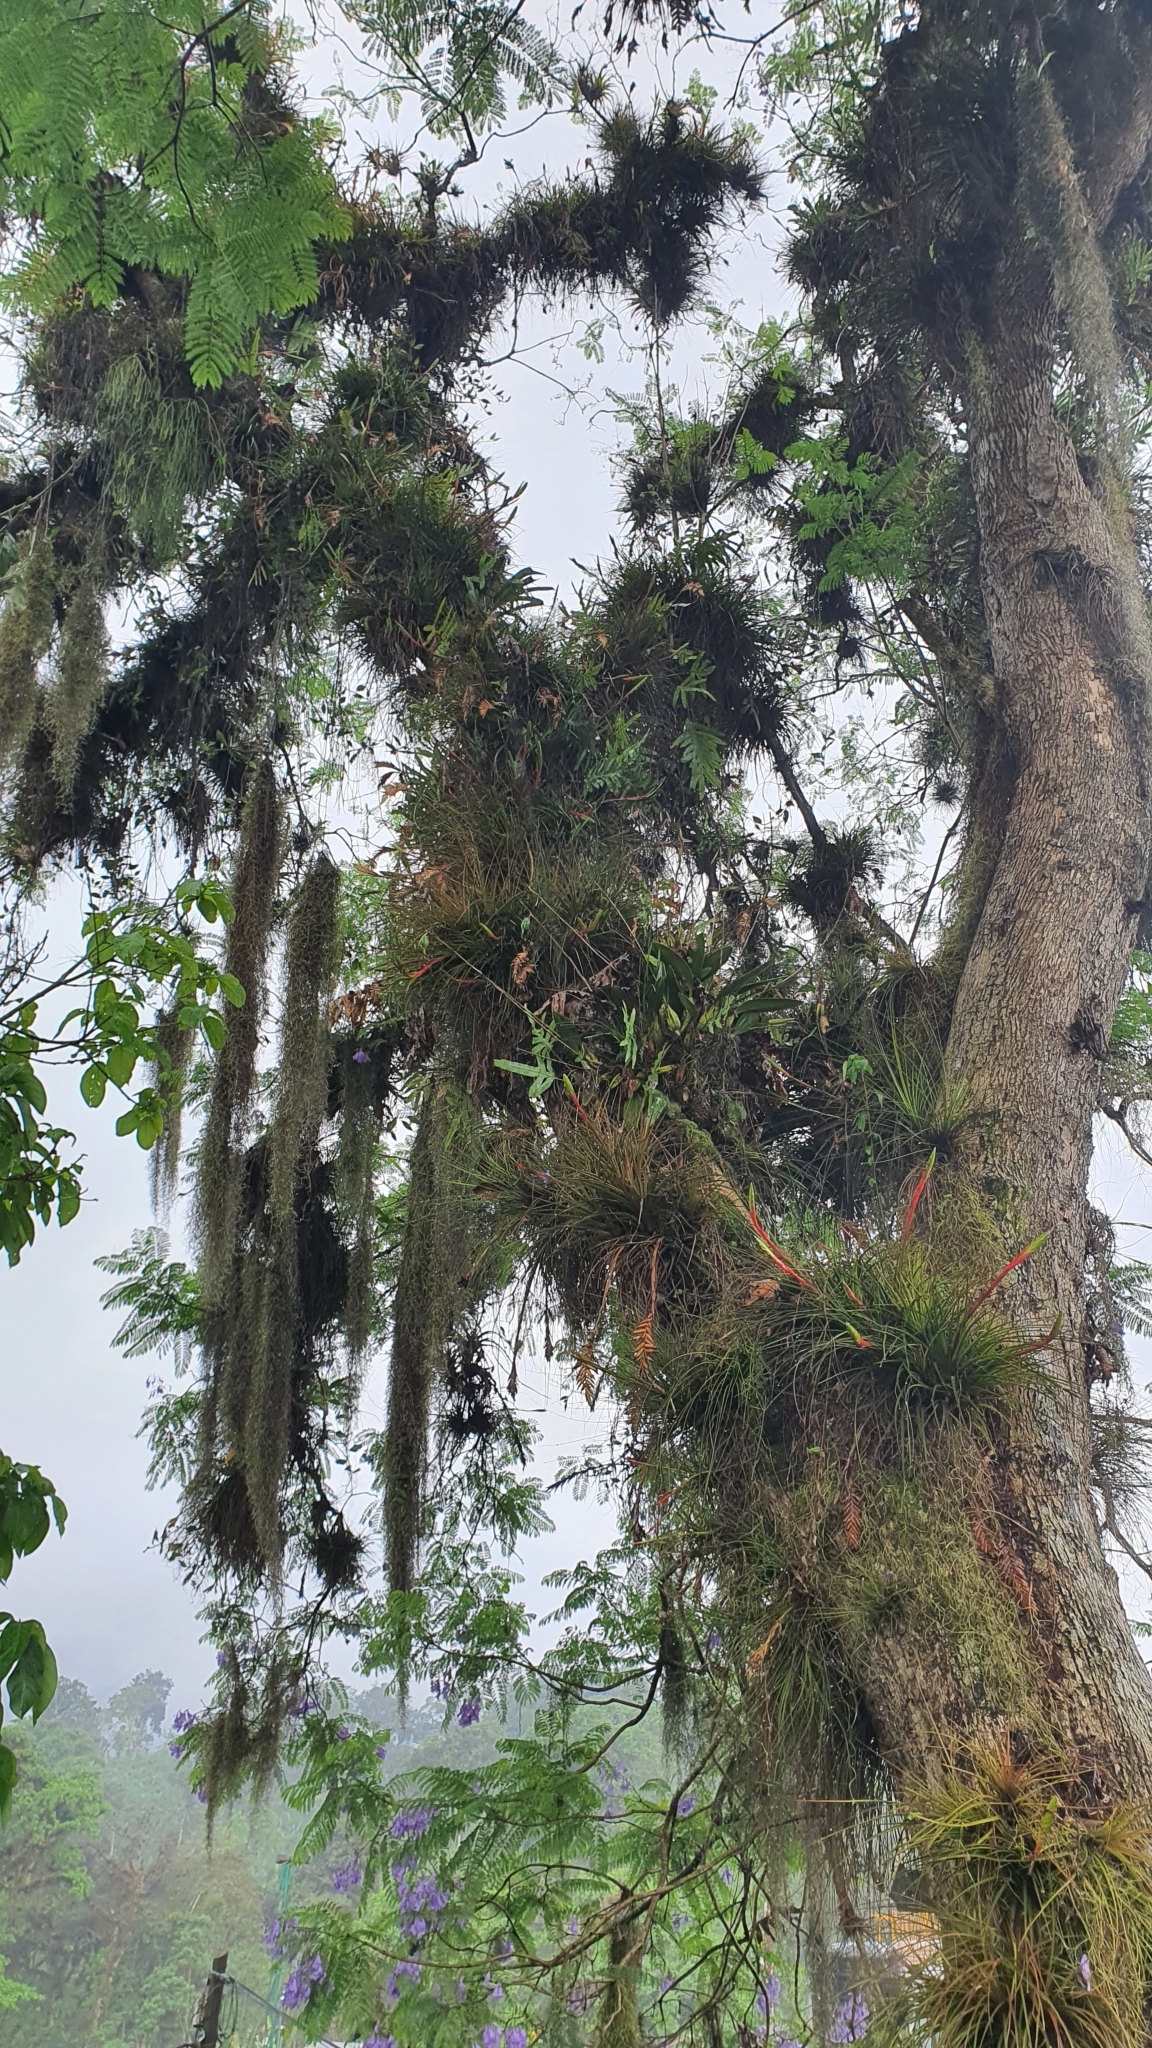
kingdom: Plantae
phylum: Tracheophyta
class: Liliopsida
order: Asparagales
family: Orchidaceae
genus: Laelia
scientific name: Laelia anceps
